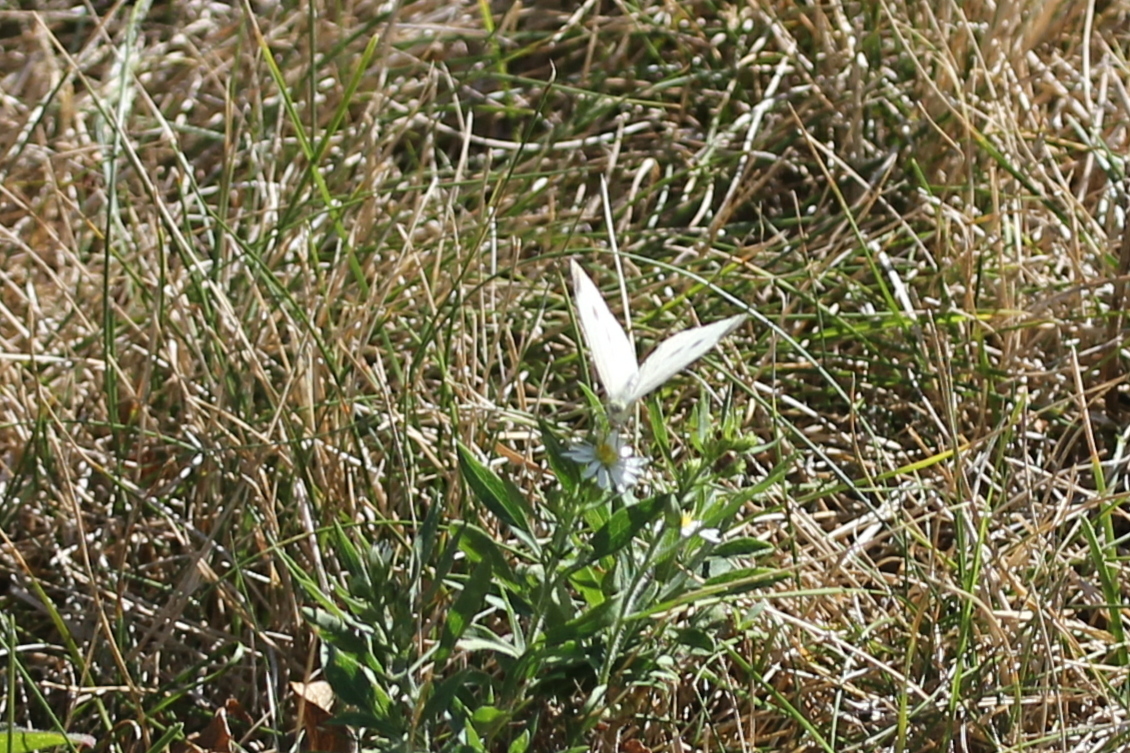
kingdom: Animalia
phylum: Arthropoda
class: Insecta
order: Lepidoptera
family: Pieridae
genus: Pieris
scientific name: Pieris rapae
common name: Small white
